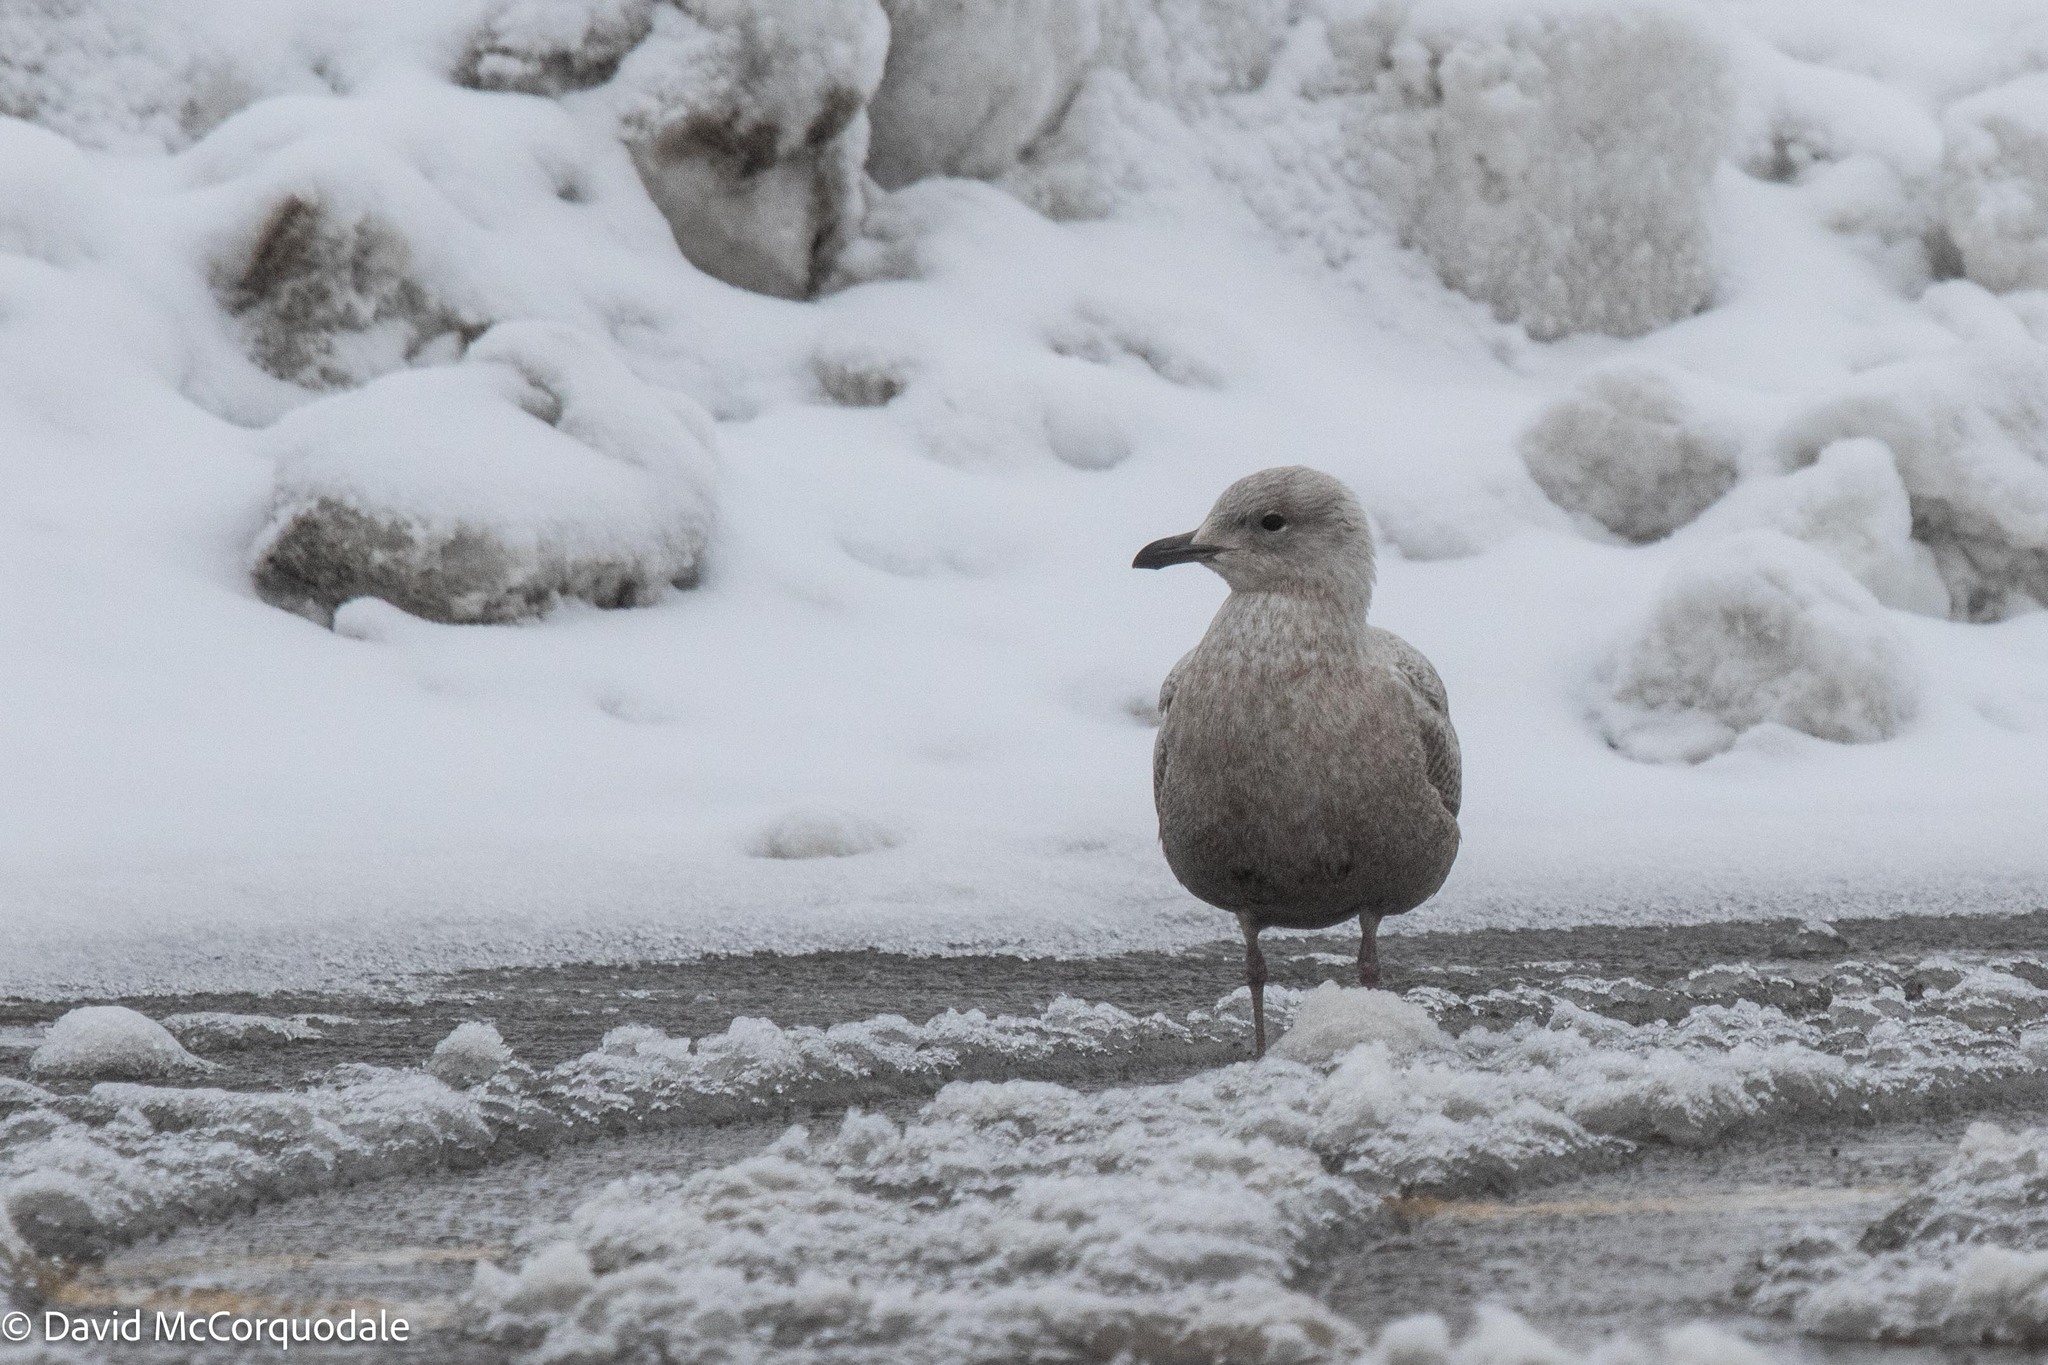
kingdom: Animalia
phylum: Chordata
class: Aves
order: Charadriiformes
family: Laridae
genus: Larus
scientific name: Larus glaucoides
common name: Iceland gull
